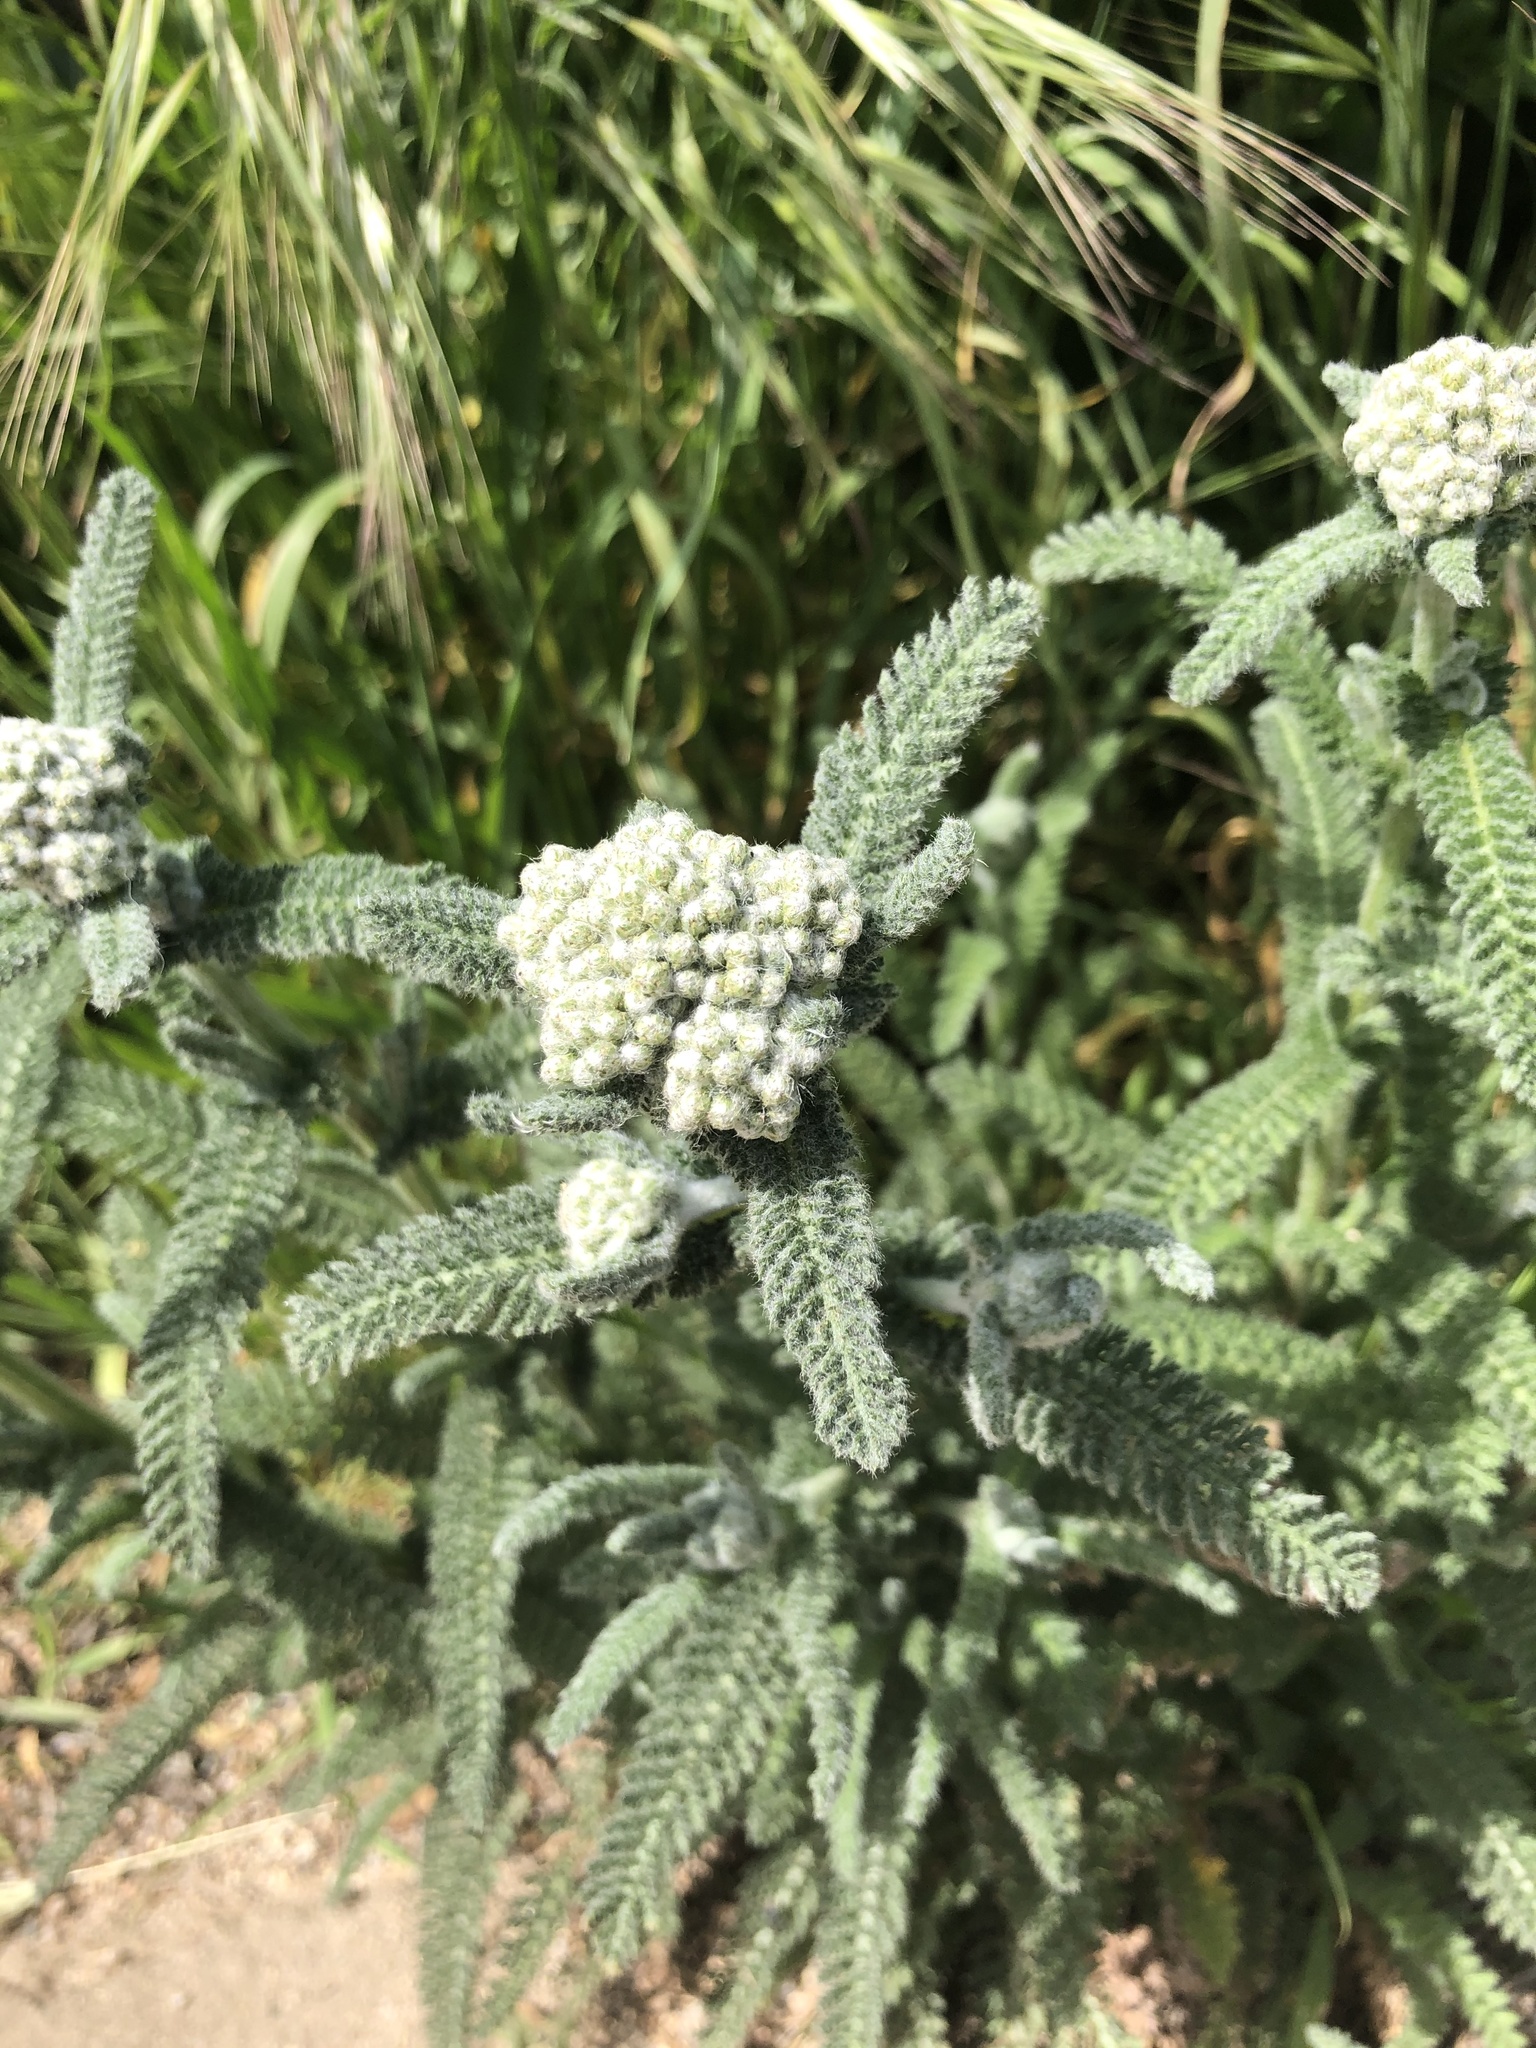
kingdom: Plantae
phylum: Tracheophyta
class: Magnoliopsida
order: Asterales
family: Asteraceae
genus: Achillea
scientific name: Achillea millefolium
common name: Yarrow
